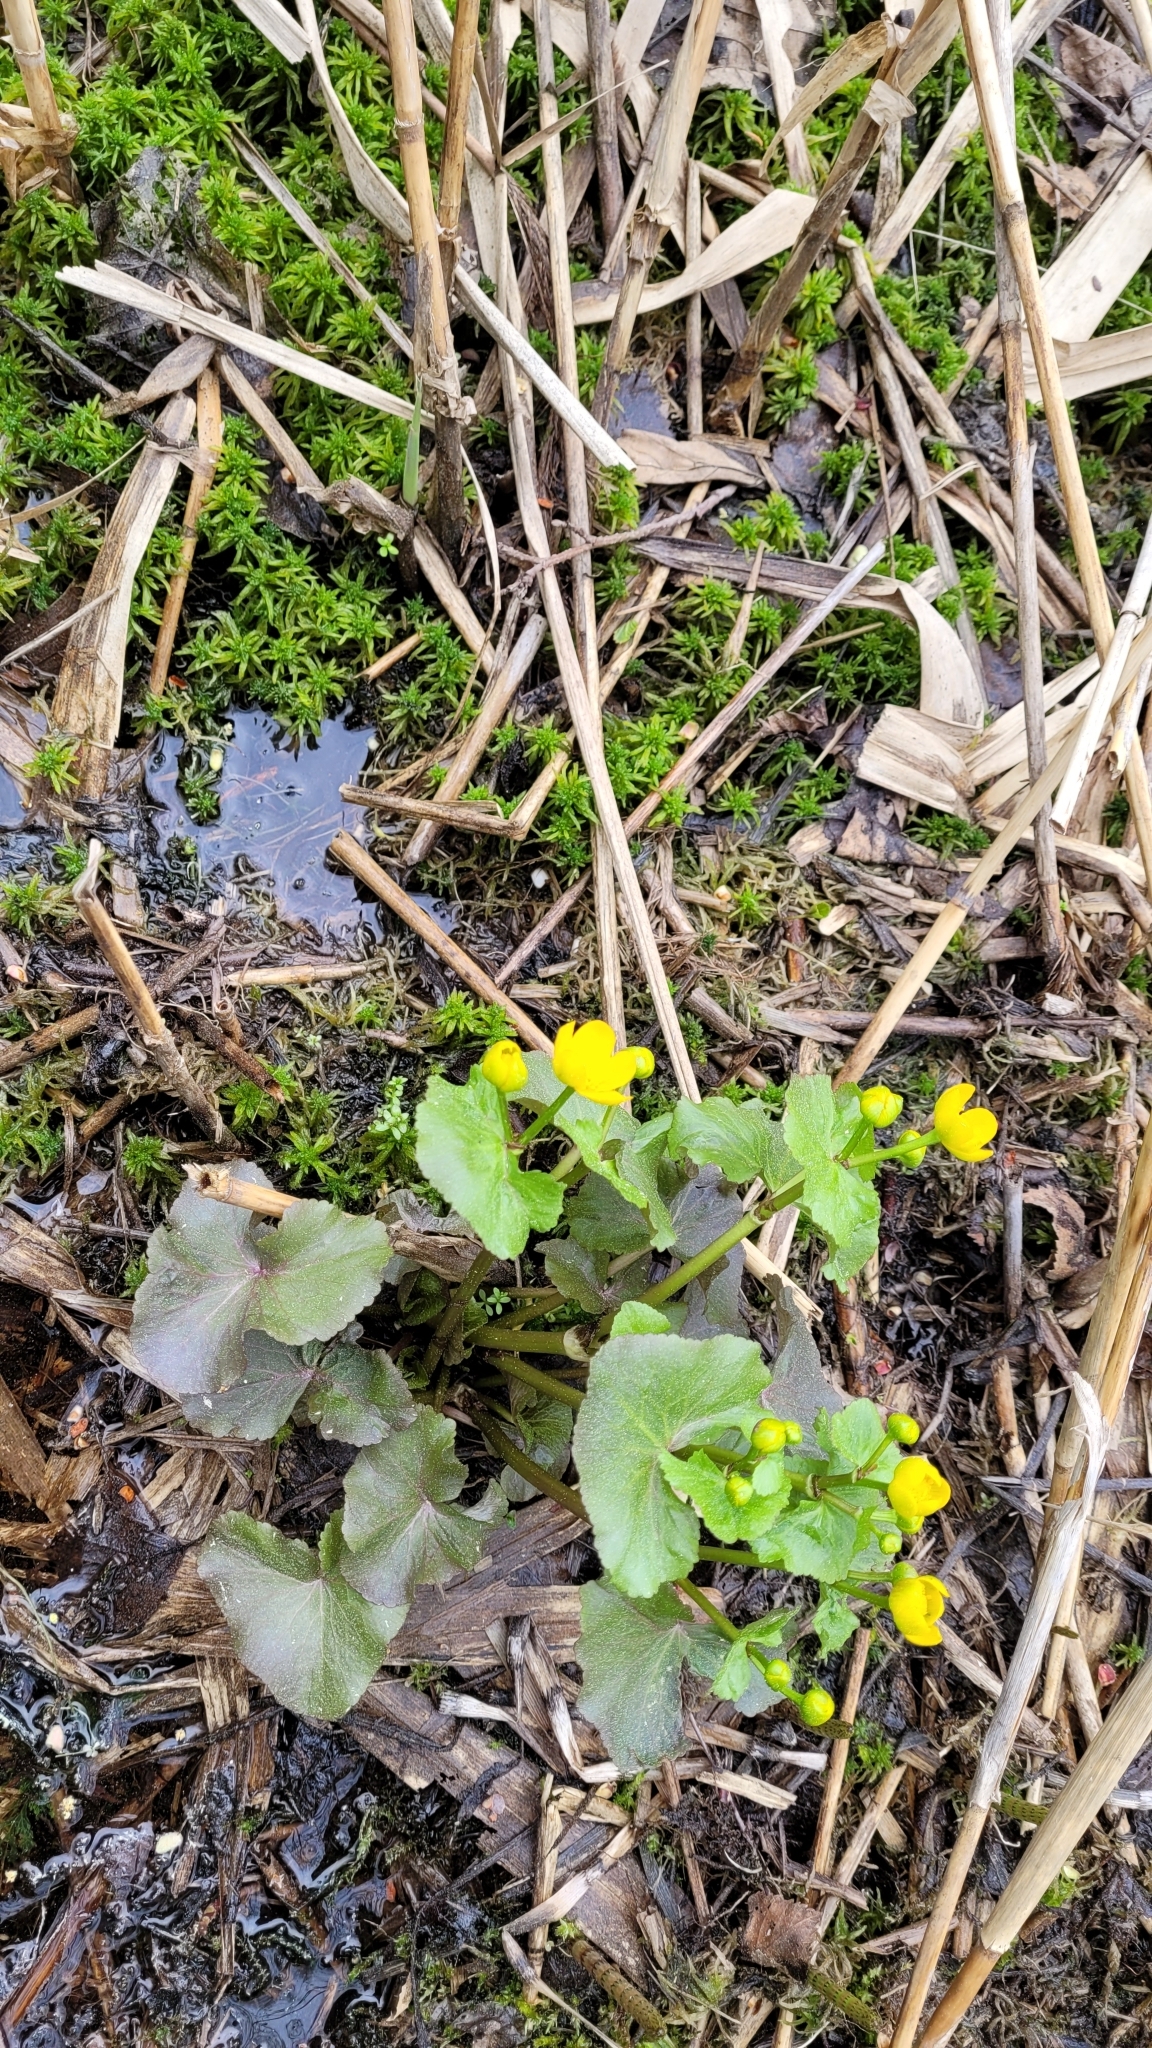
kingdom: Plantae
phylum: Tracheophyta
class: Magnoliopsida
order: Ranunculales
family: Ranunculaceae
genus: Caltha
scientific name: Caltha palustris
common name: Marsh marigold
